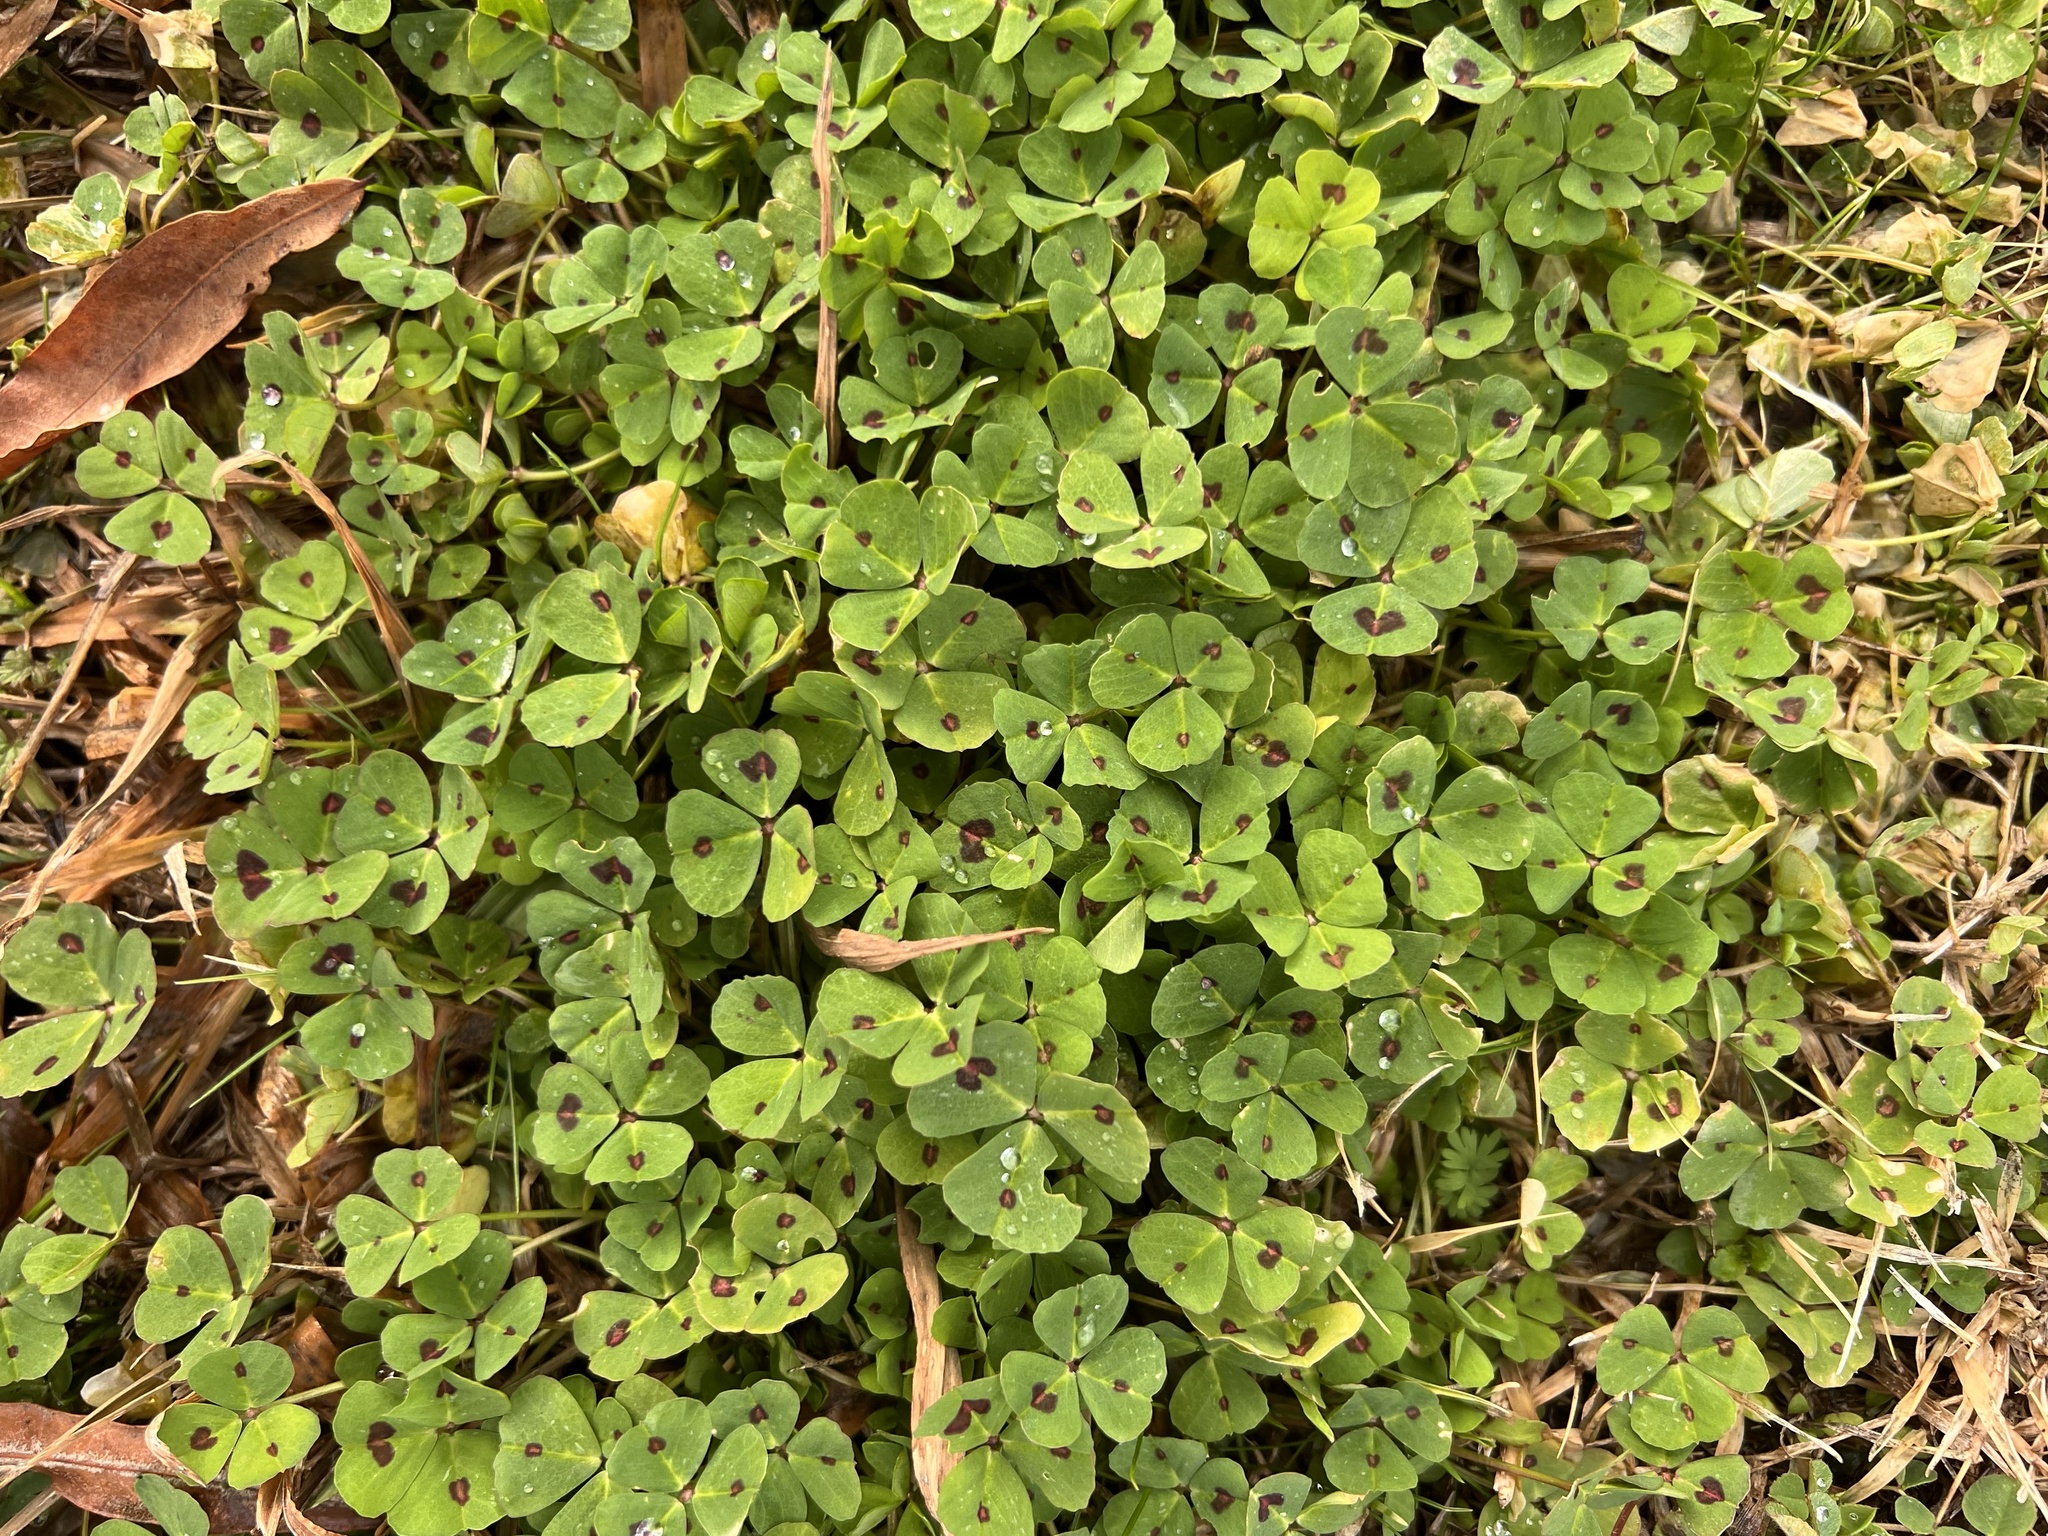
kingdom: Plantae
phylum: Tracheophyta
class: Magnoliopsida
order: Fabales
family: Fabaceae
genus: Medicago
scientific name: Medicago arabica
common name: Spotted medick
